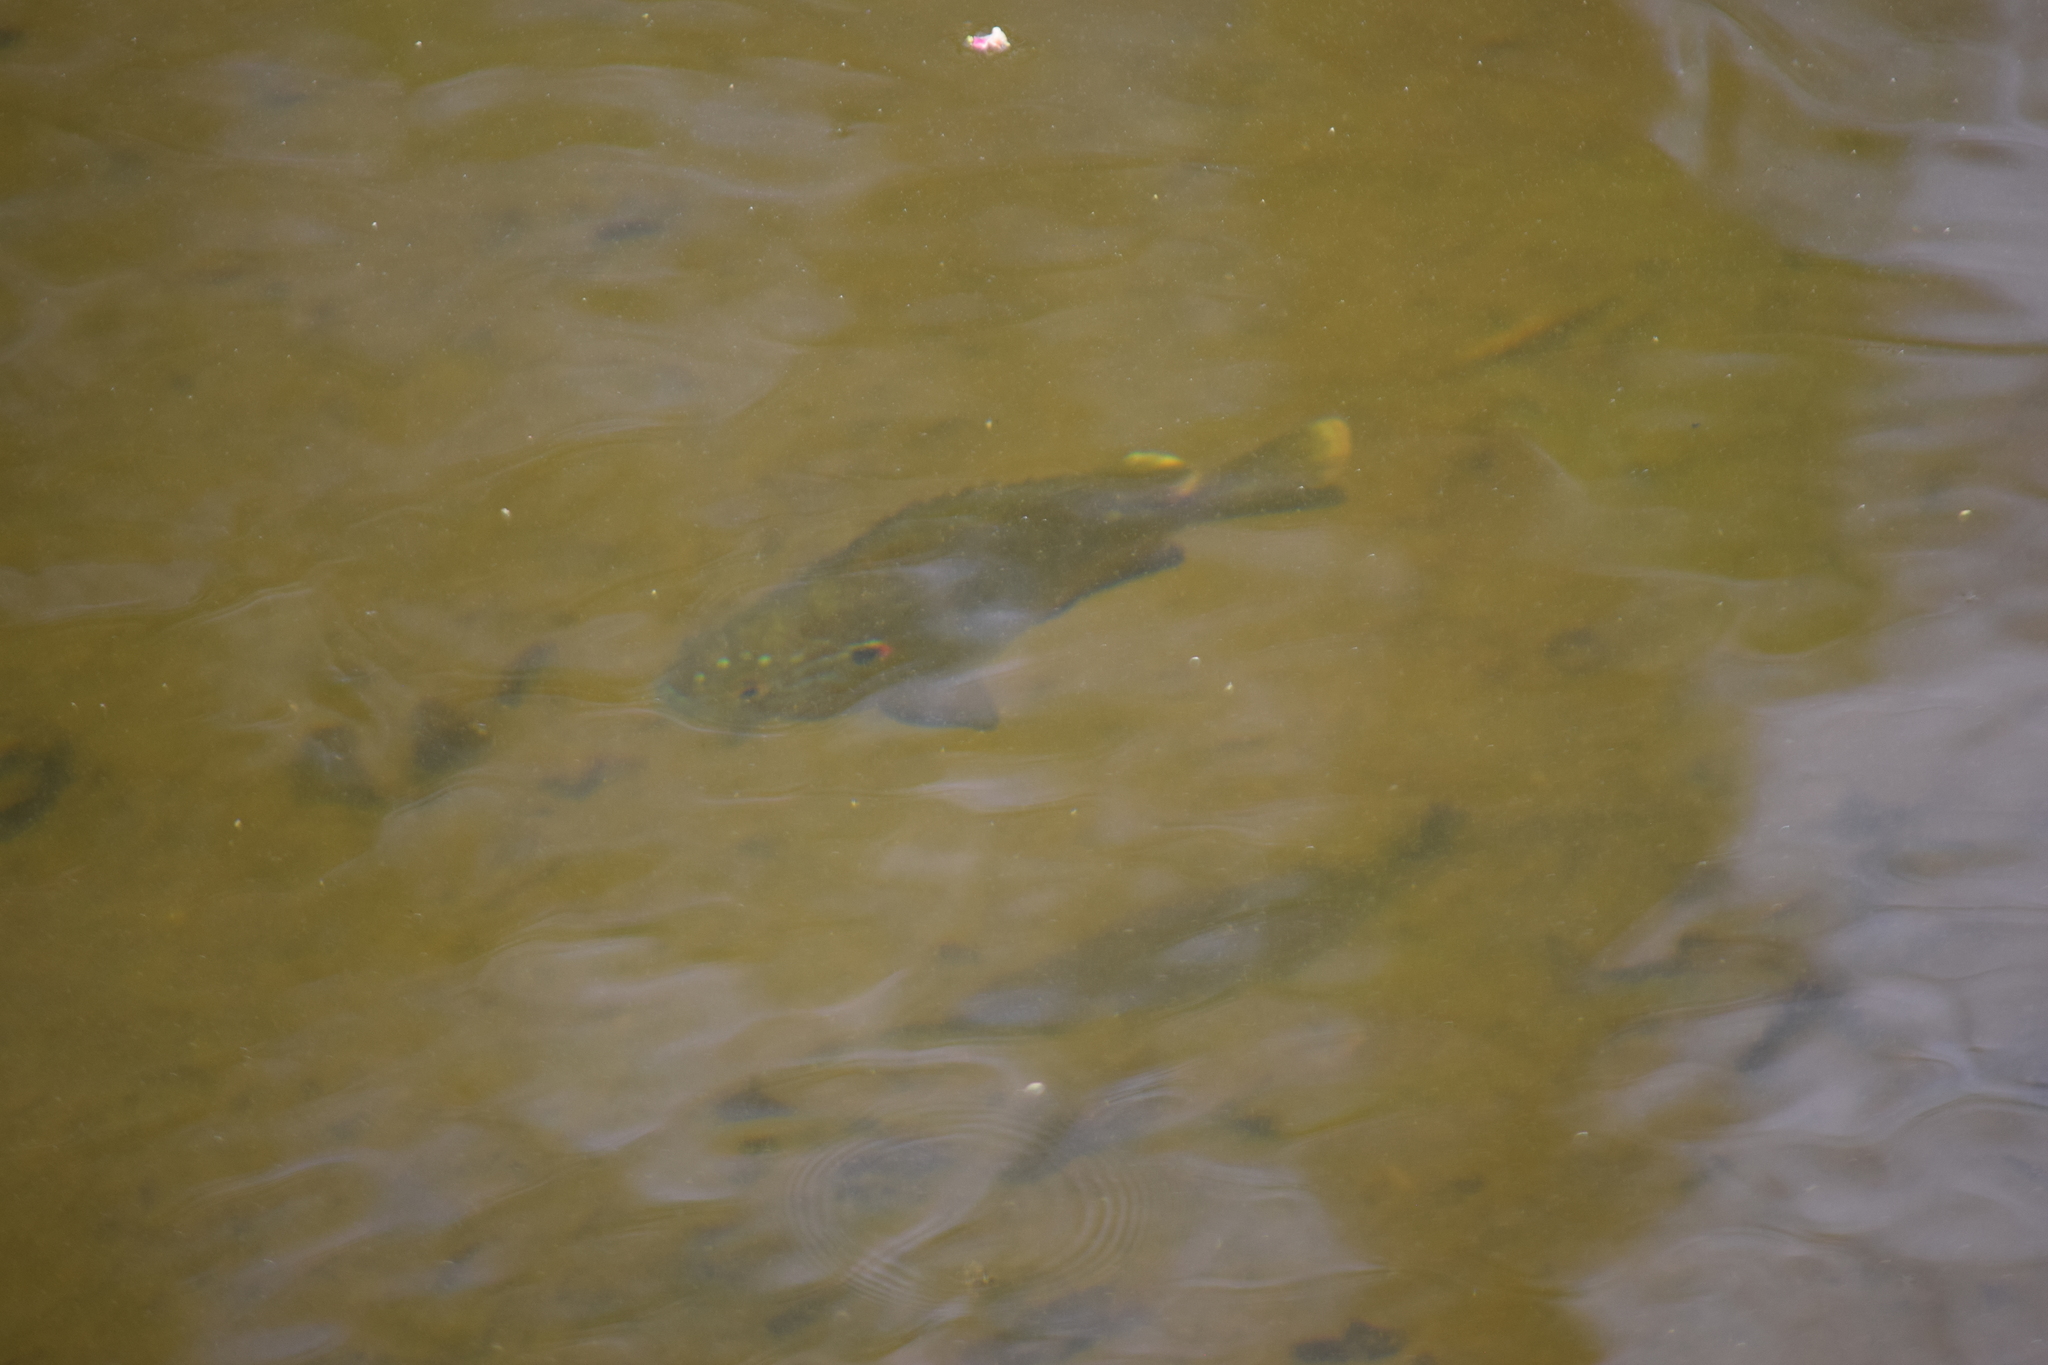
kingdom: Animalia
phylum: Chordata
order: Perciformes
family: Centrarchidae
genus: Lepomis
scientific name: Lepomis gibbosus
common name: Pumpkinseed
